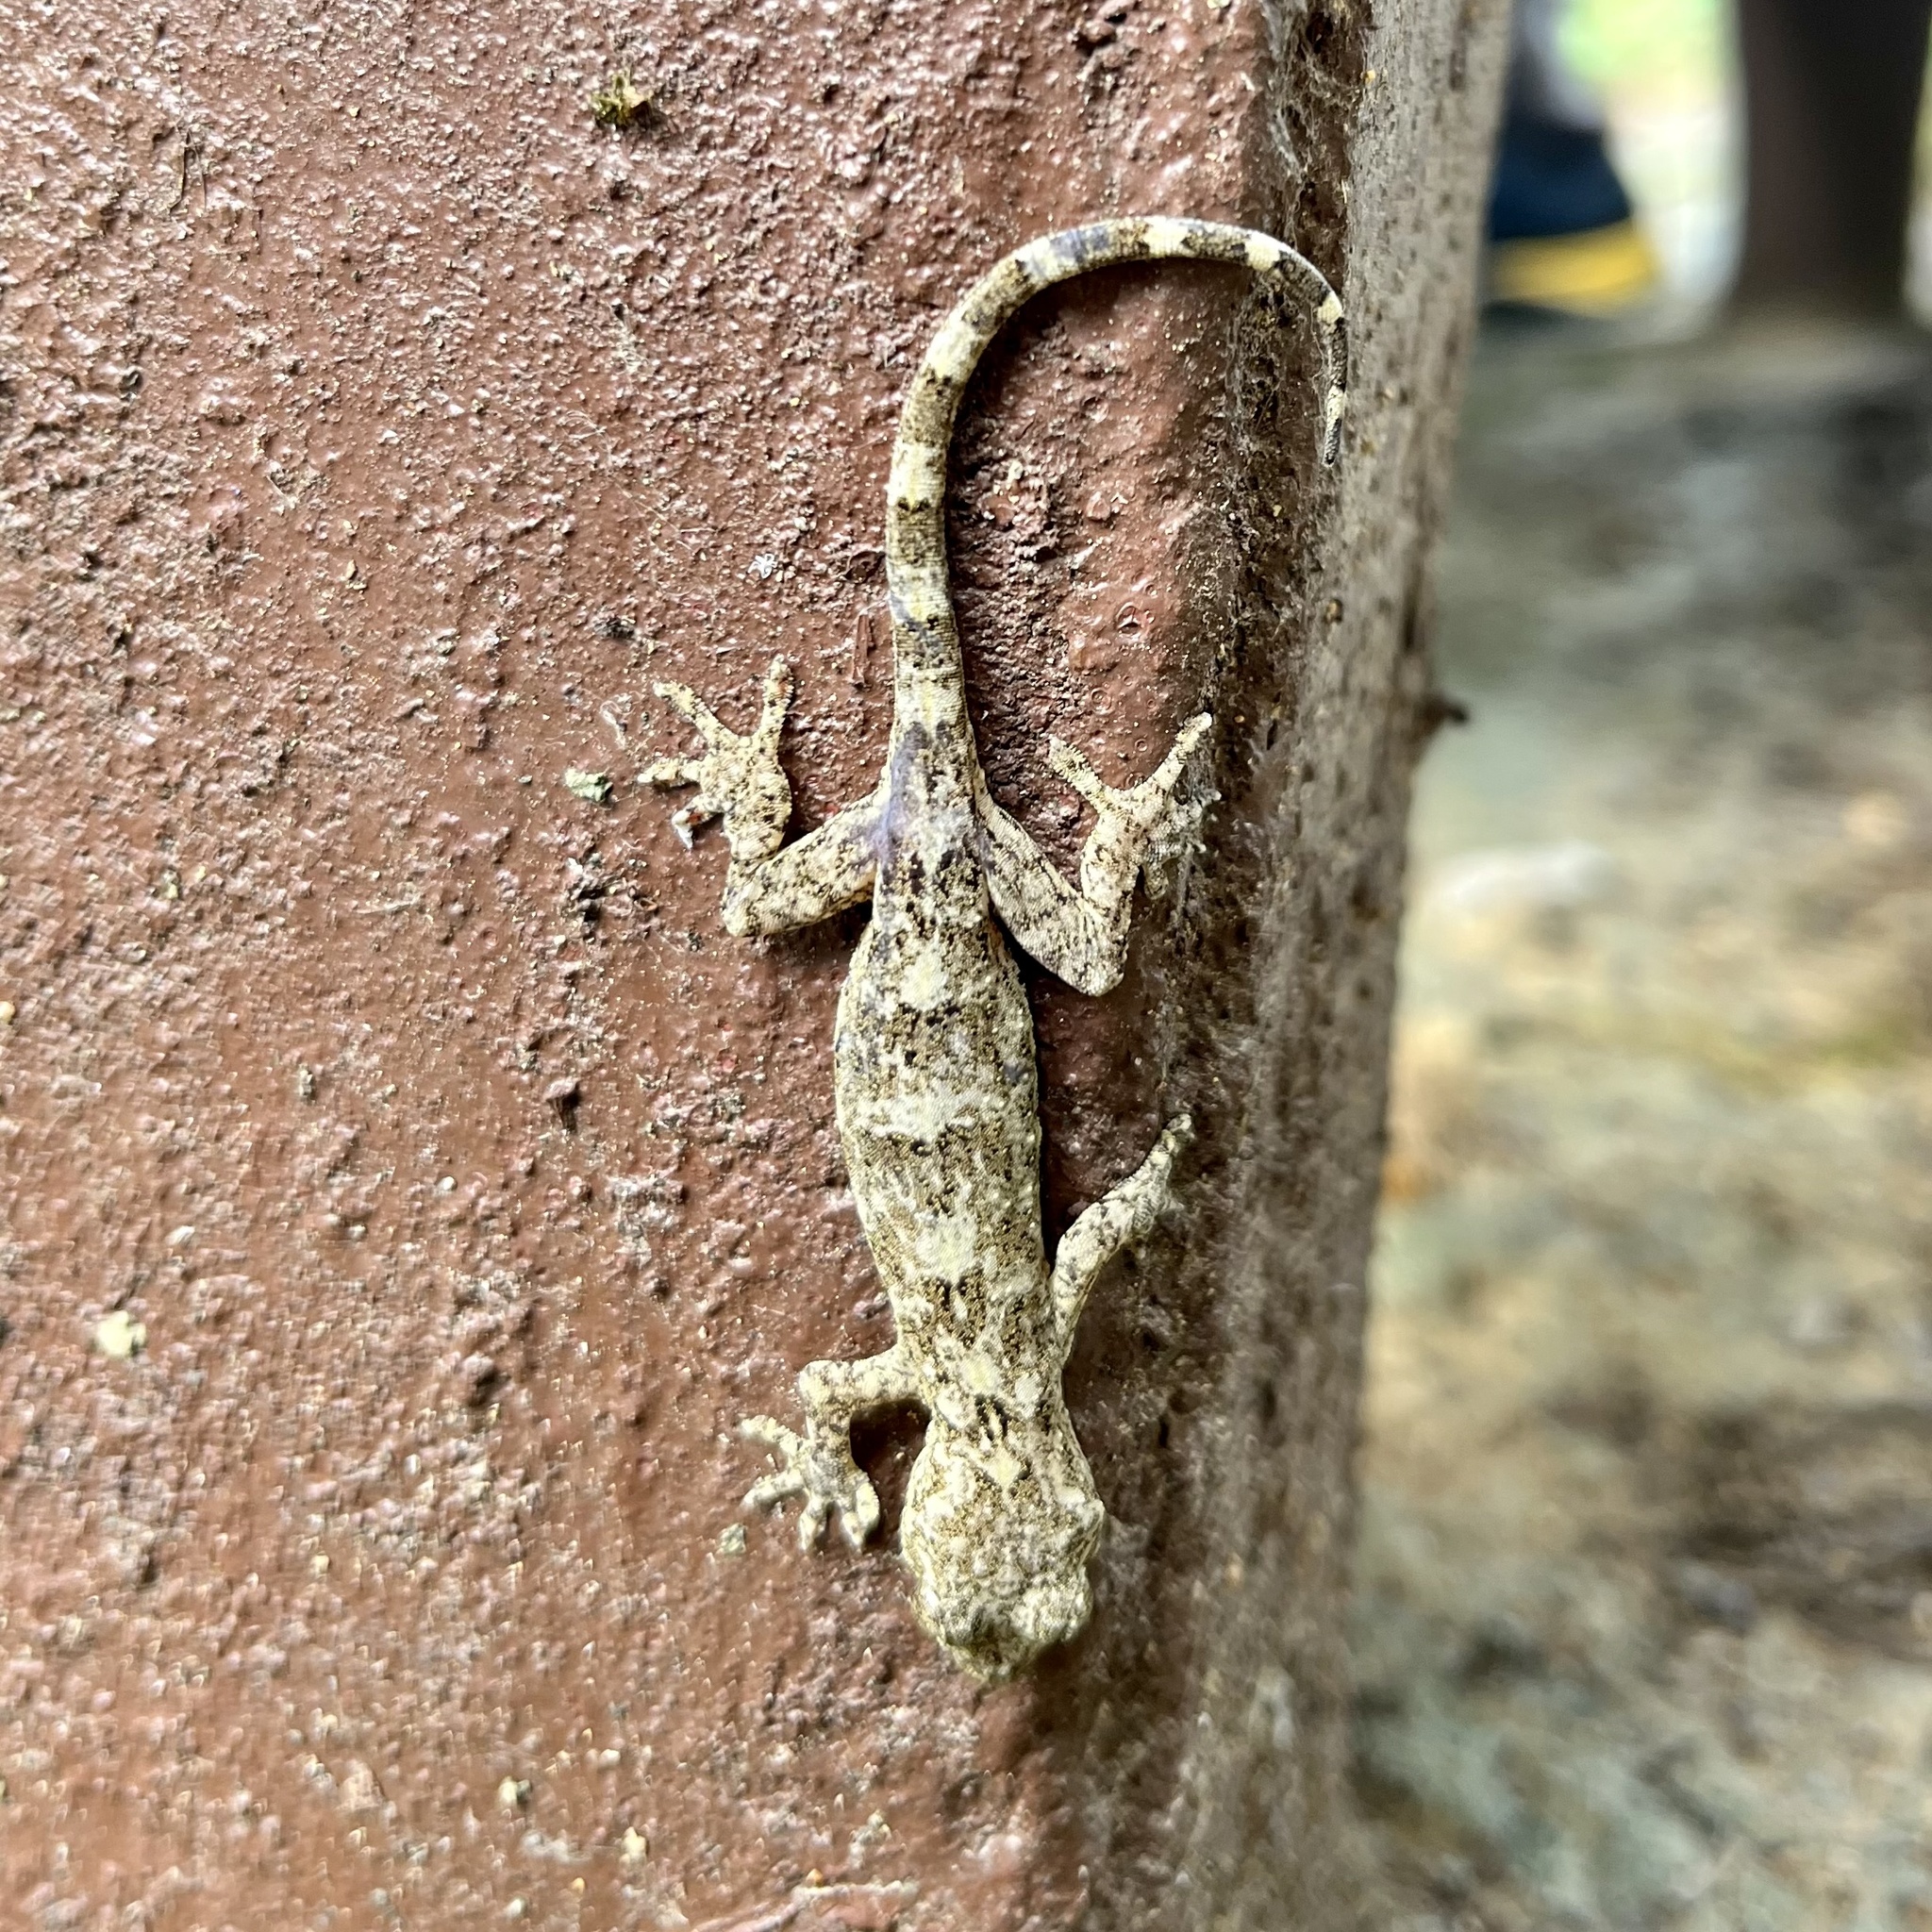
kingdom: Animalia
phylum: Chordata
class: Squamata
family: Gekkonidae
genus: Gekko
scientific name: Gekko chinensis
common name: Gray's chinese gecko
